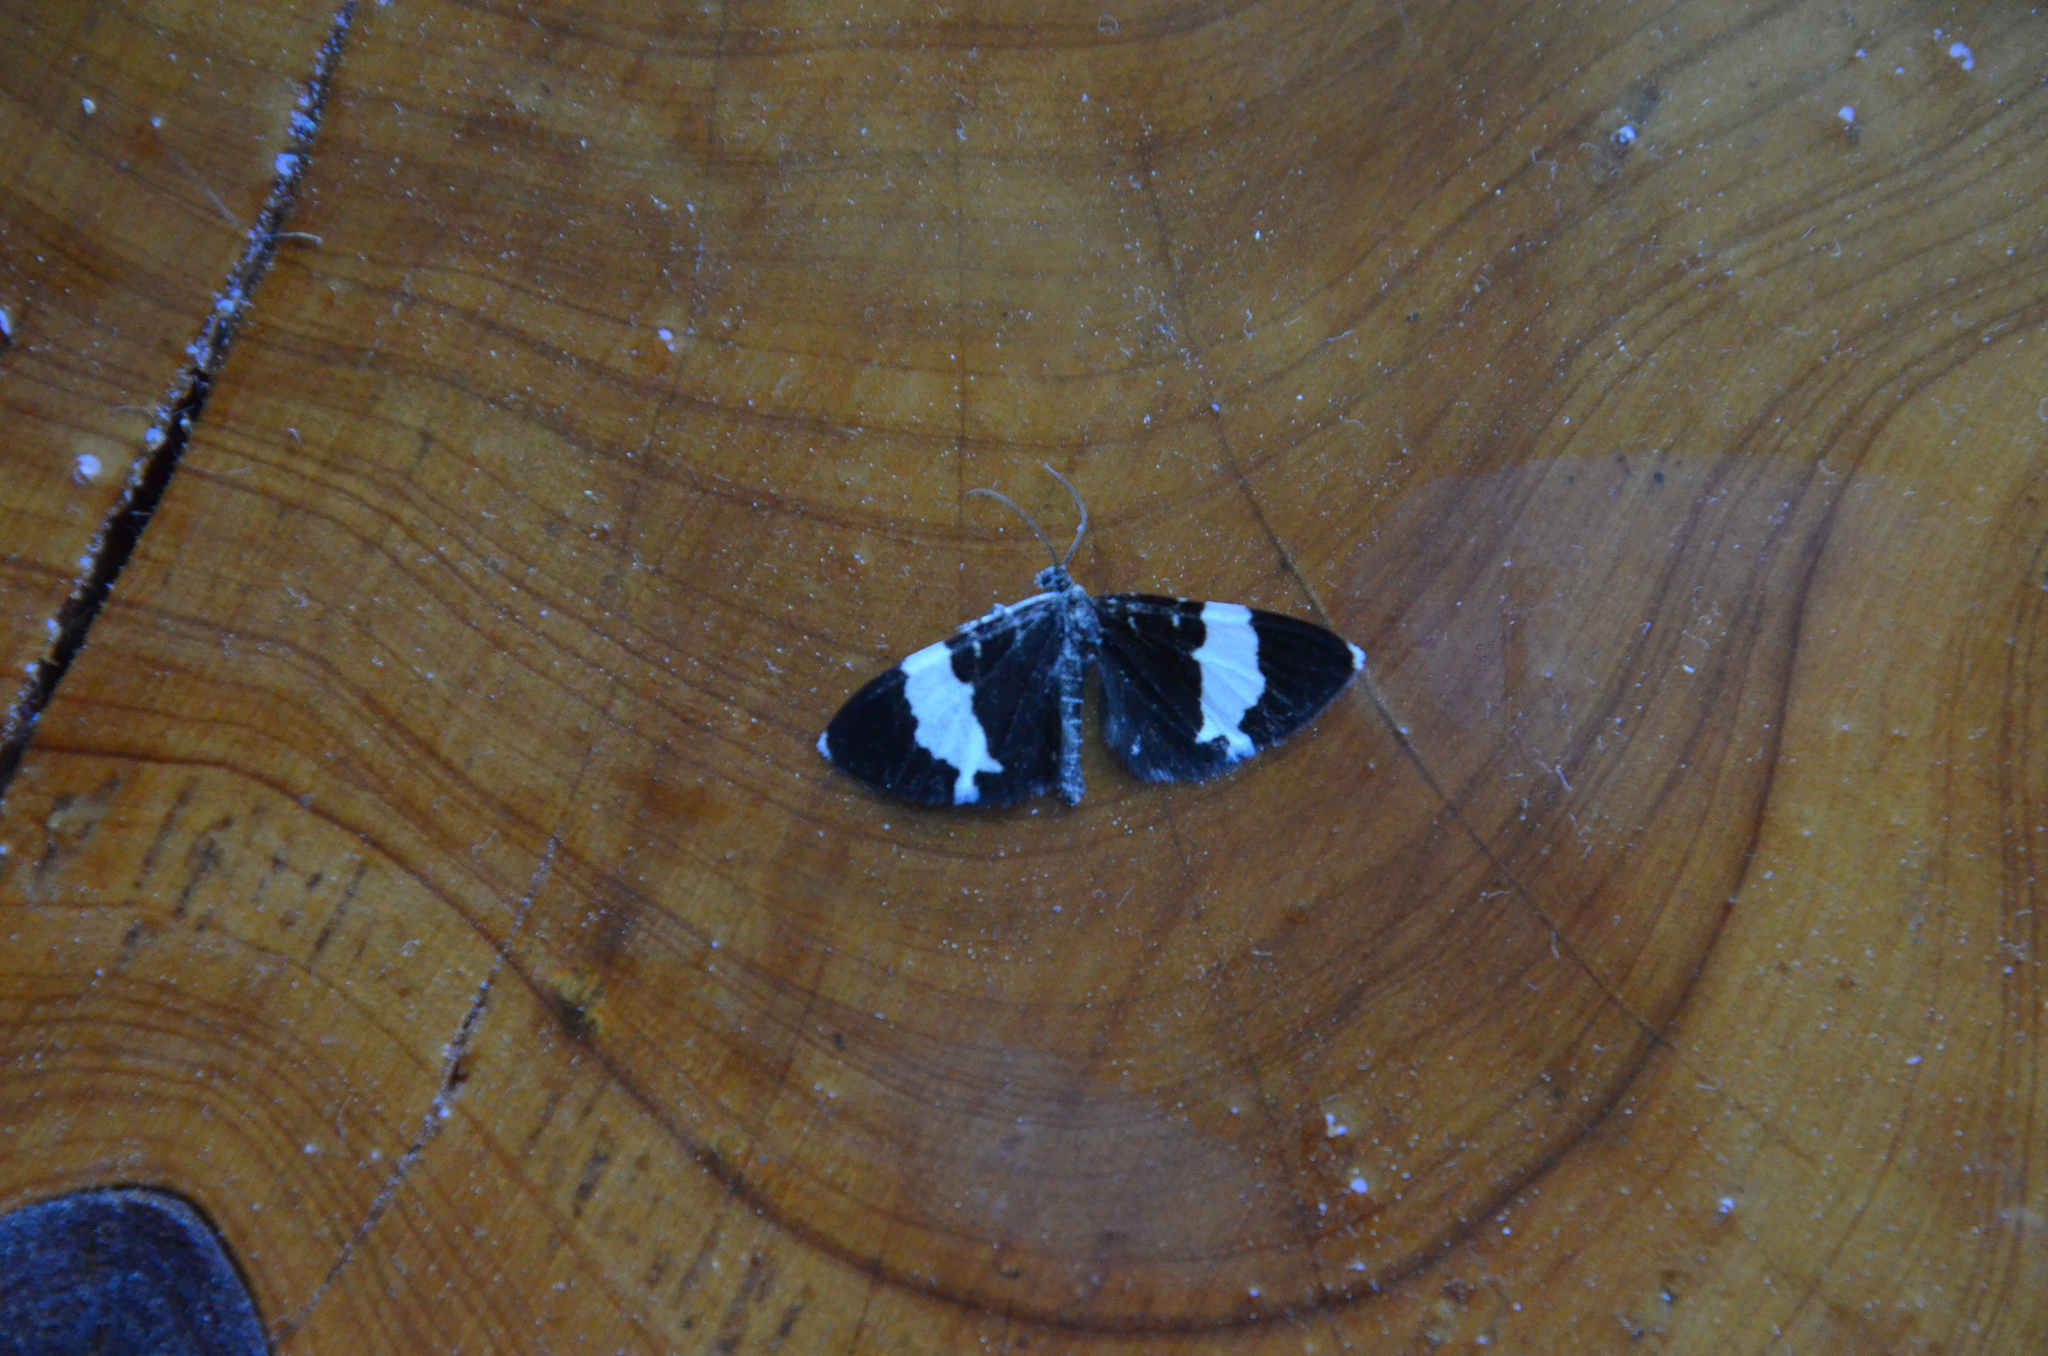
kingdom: Animalia
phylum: Arthropoda
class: Insecta
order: Lepidoptera
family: Geometridae
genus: Trichodezia
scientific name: Trichodezia albovittata
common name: White striped black
